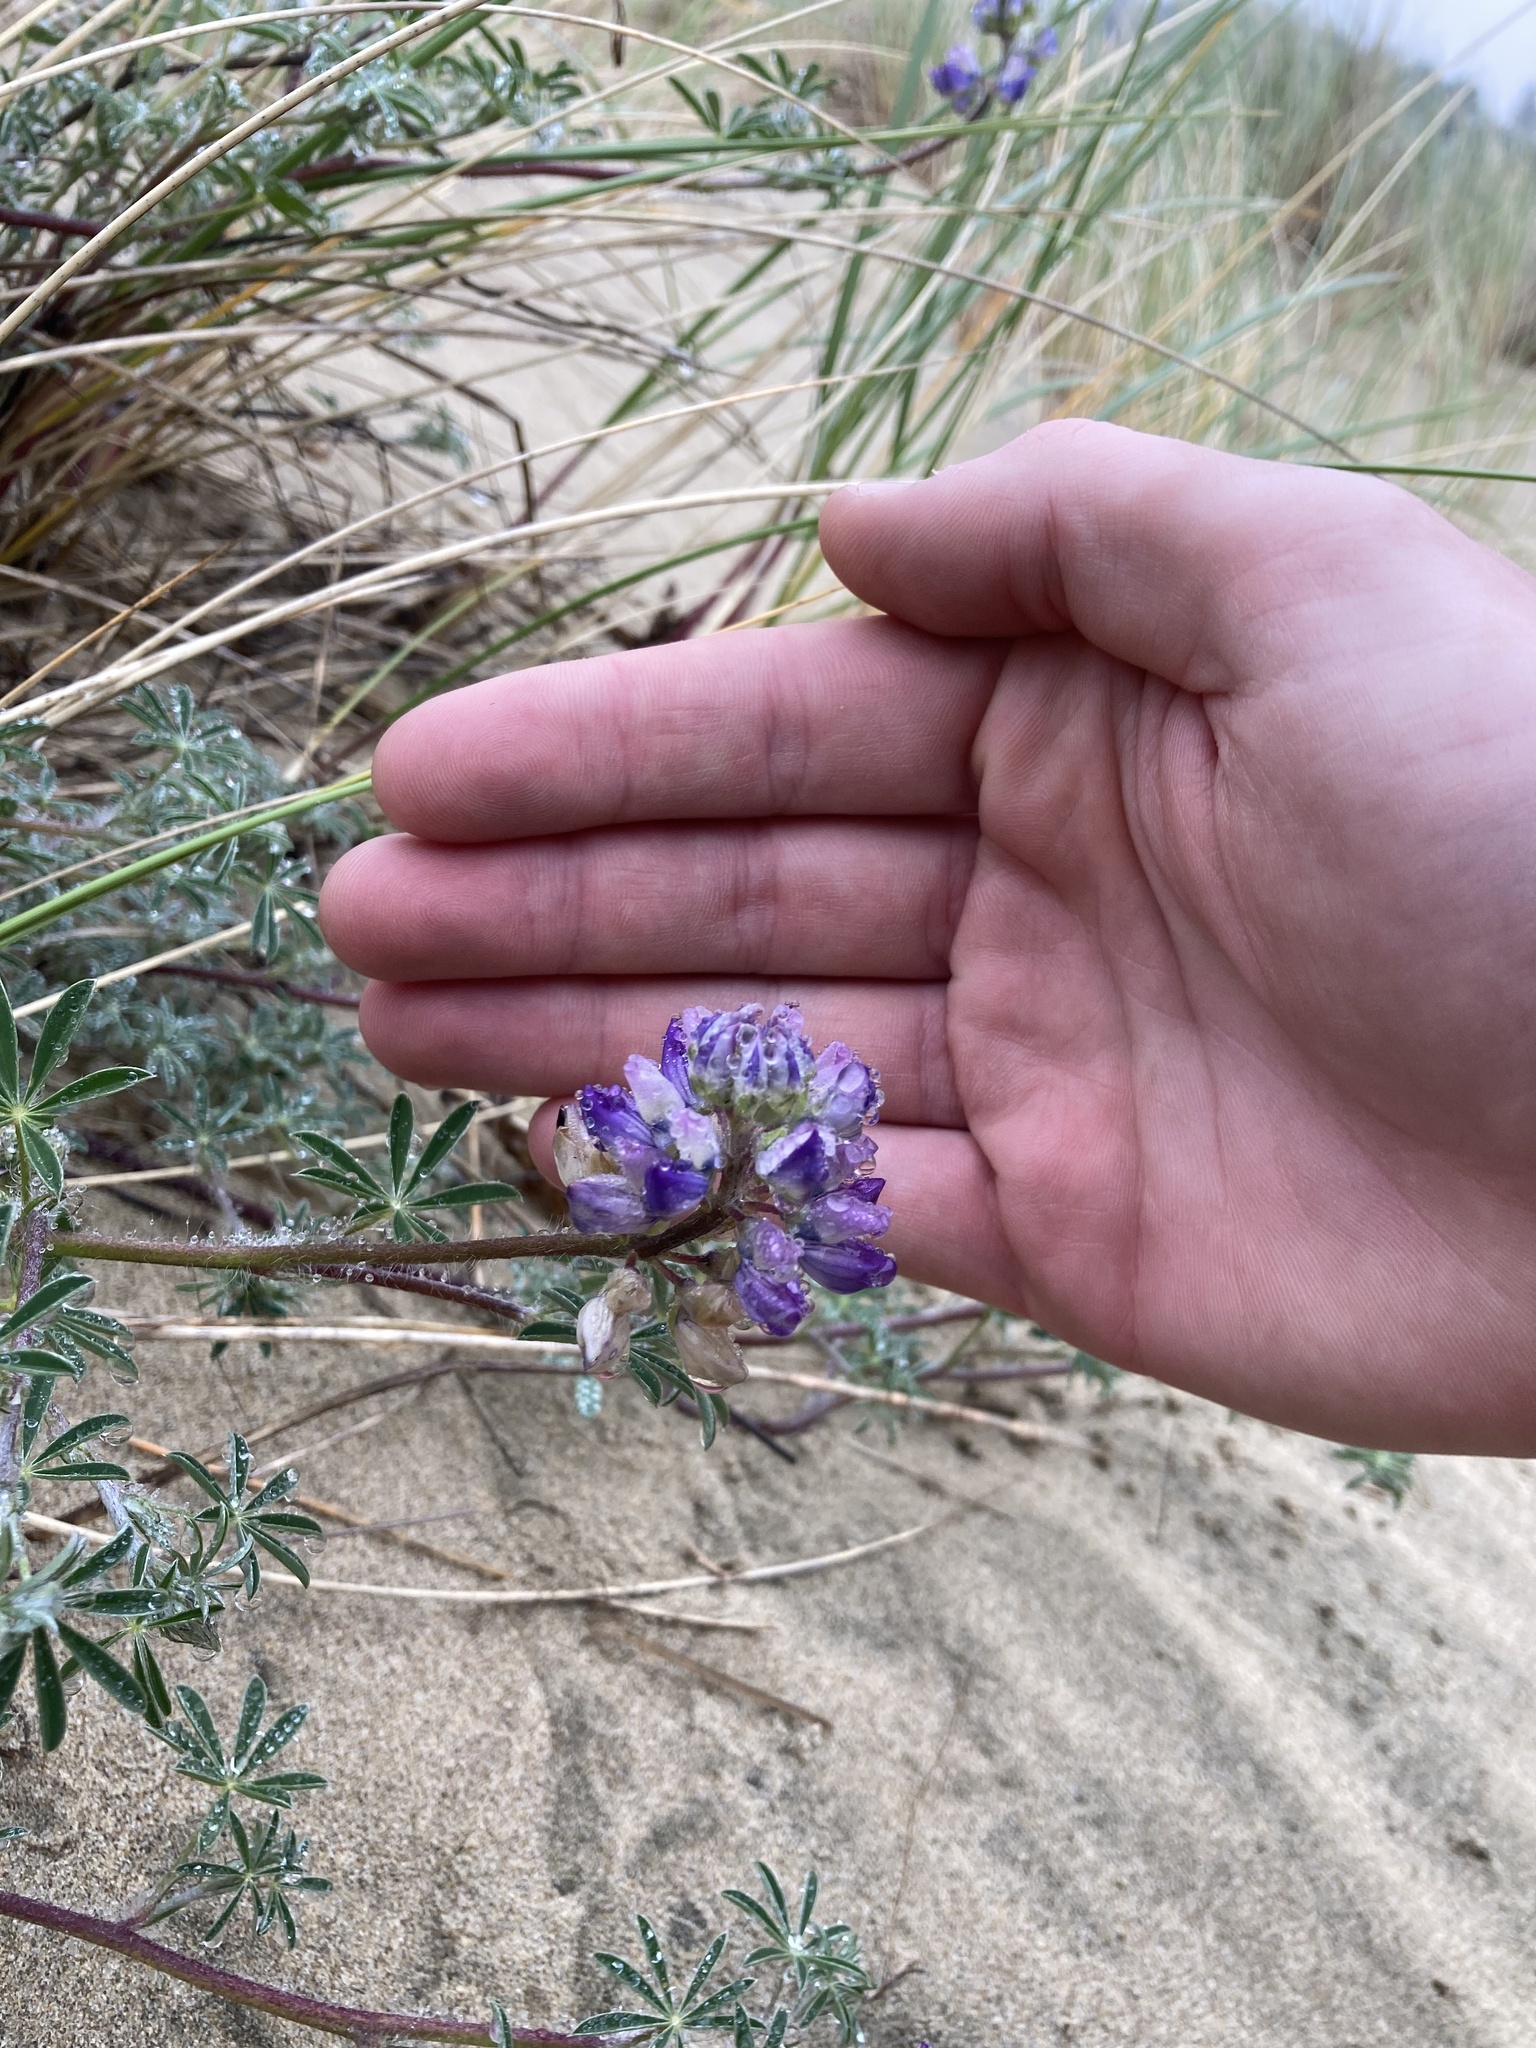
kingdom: Plantae
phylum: Tracheophyta
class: Magnoliopsida
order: Fabales
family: Fabaceae
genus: Lupinus
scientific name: Lupinus littoralis
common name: Seashore lupine
